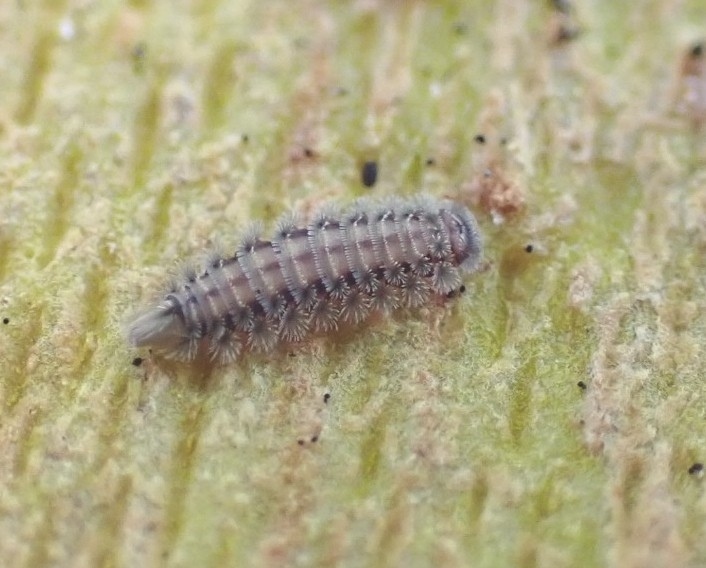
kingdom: Animalia
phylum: Arthropoda
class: Diplopoda
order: Polyxenida
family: Polyxenidae
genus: Polyxenus
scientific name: Polyxenus lagurus
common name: Bristly millipede
